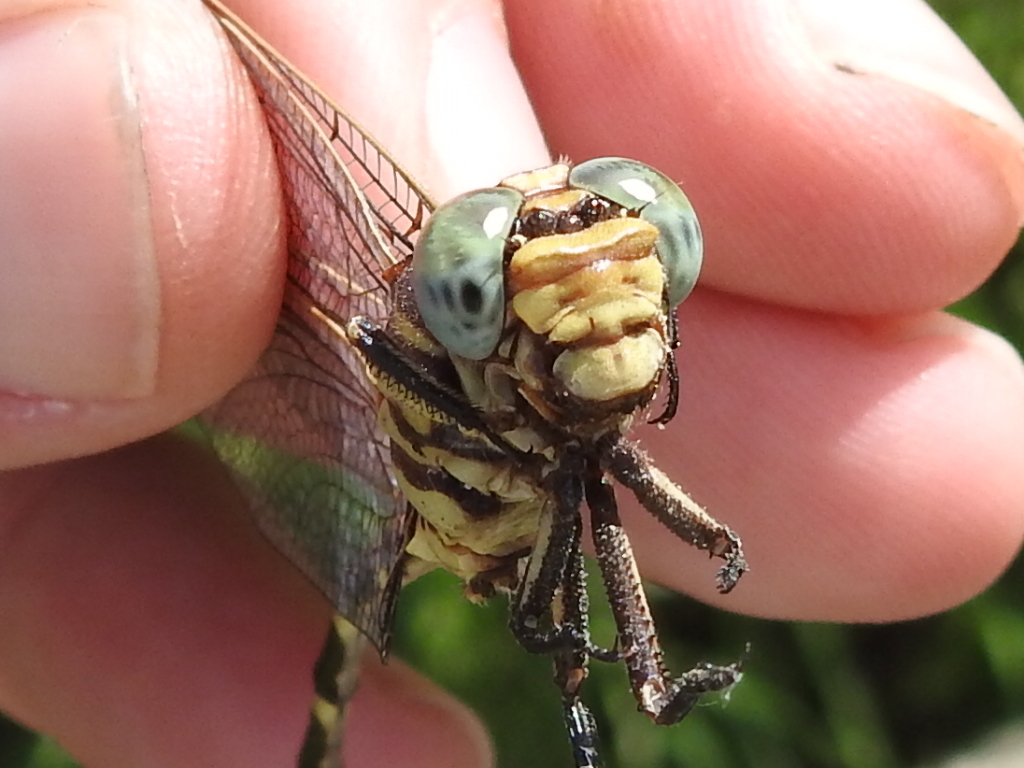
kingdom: Animalia
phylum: Arthropoda
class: Insecta
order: Odonata
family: Gomphidae
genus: Phyllogomphoides
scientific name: Phyllogomphoides stigmatus
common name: Four-striped leaftail
